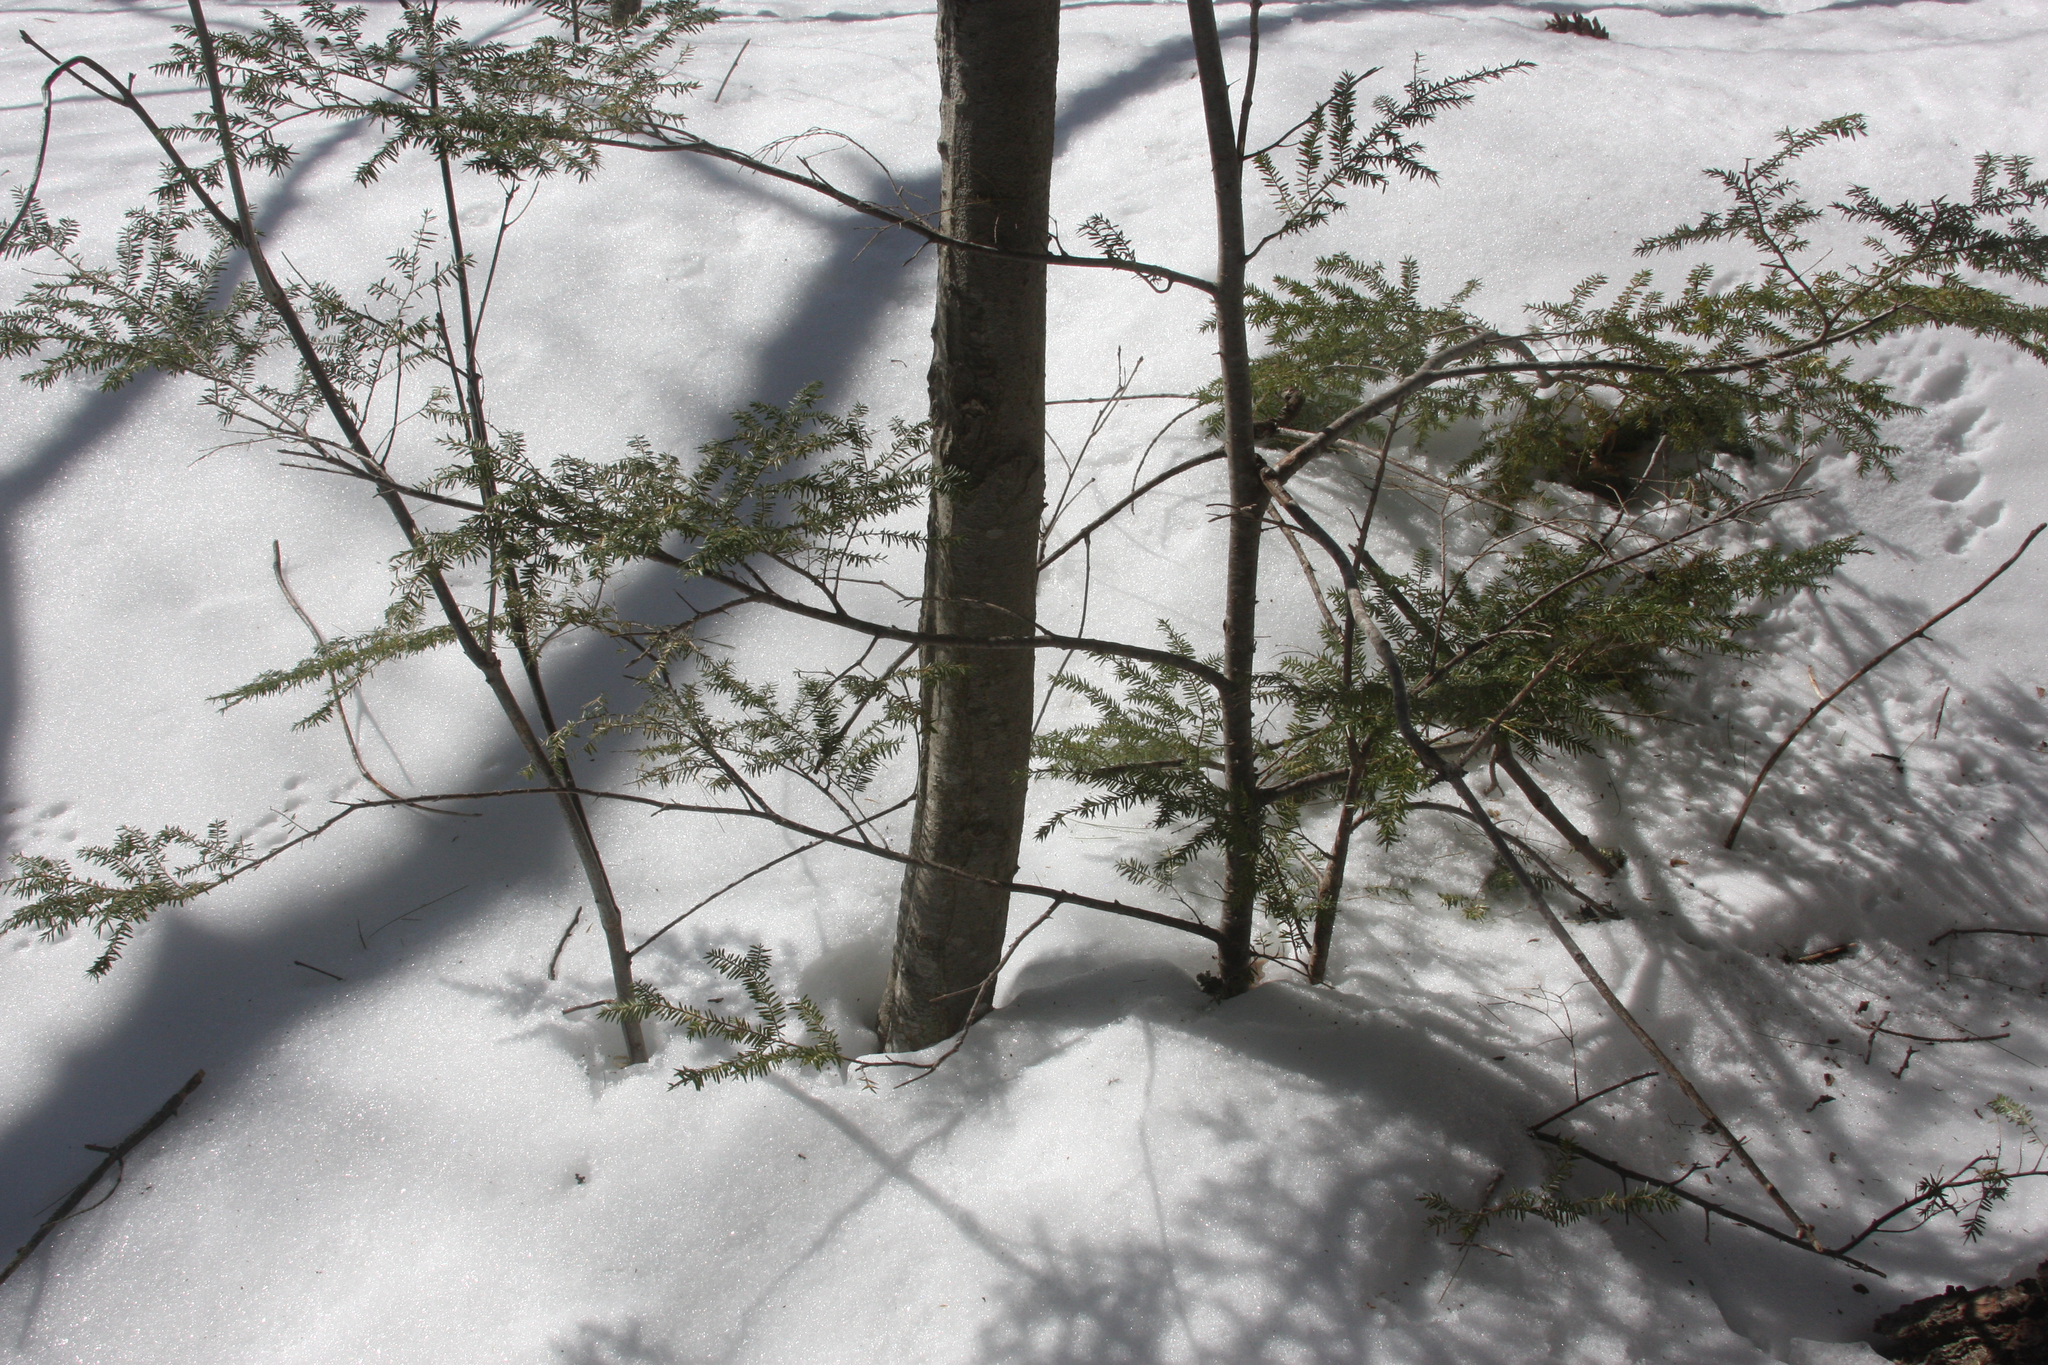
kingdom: Plantae
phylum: Tracheophyta
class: Pinopsida
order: Pinales
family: Pinaceae
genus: Tsuga
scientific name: Tsuga canadensis
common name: Eastern hemlock
